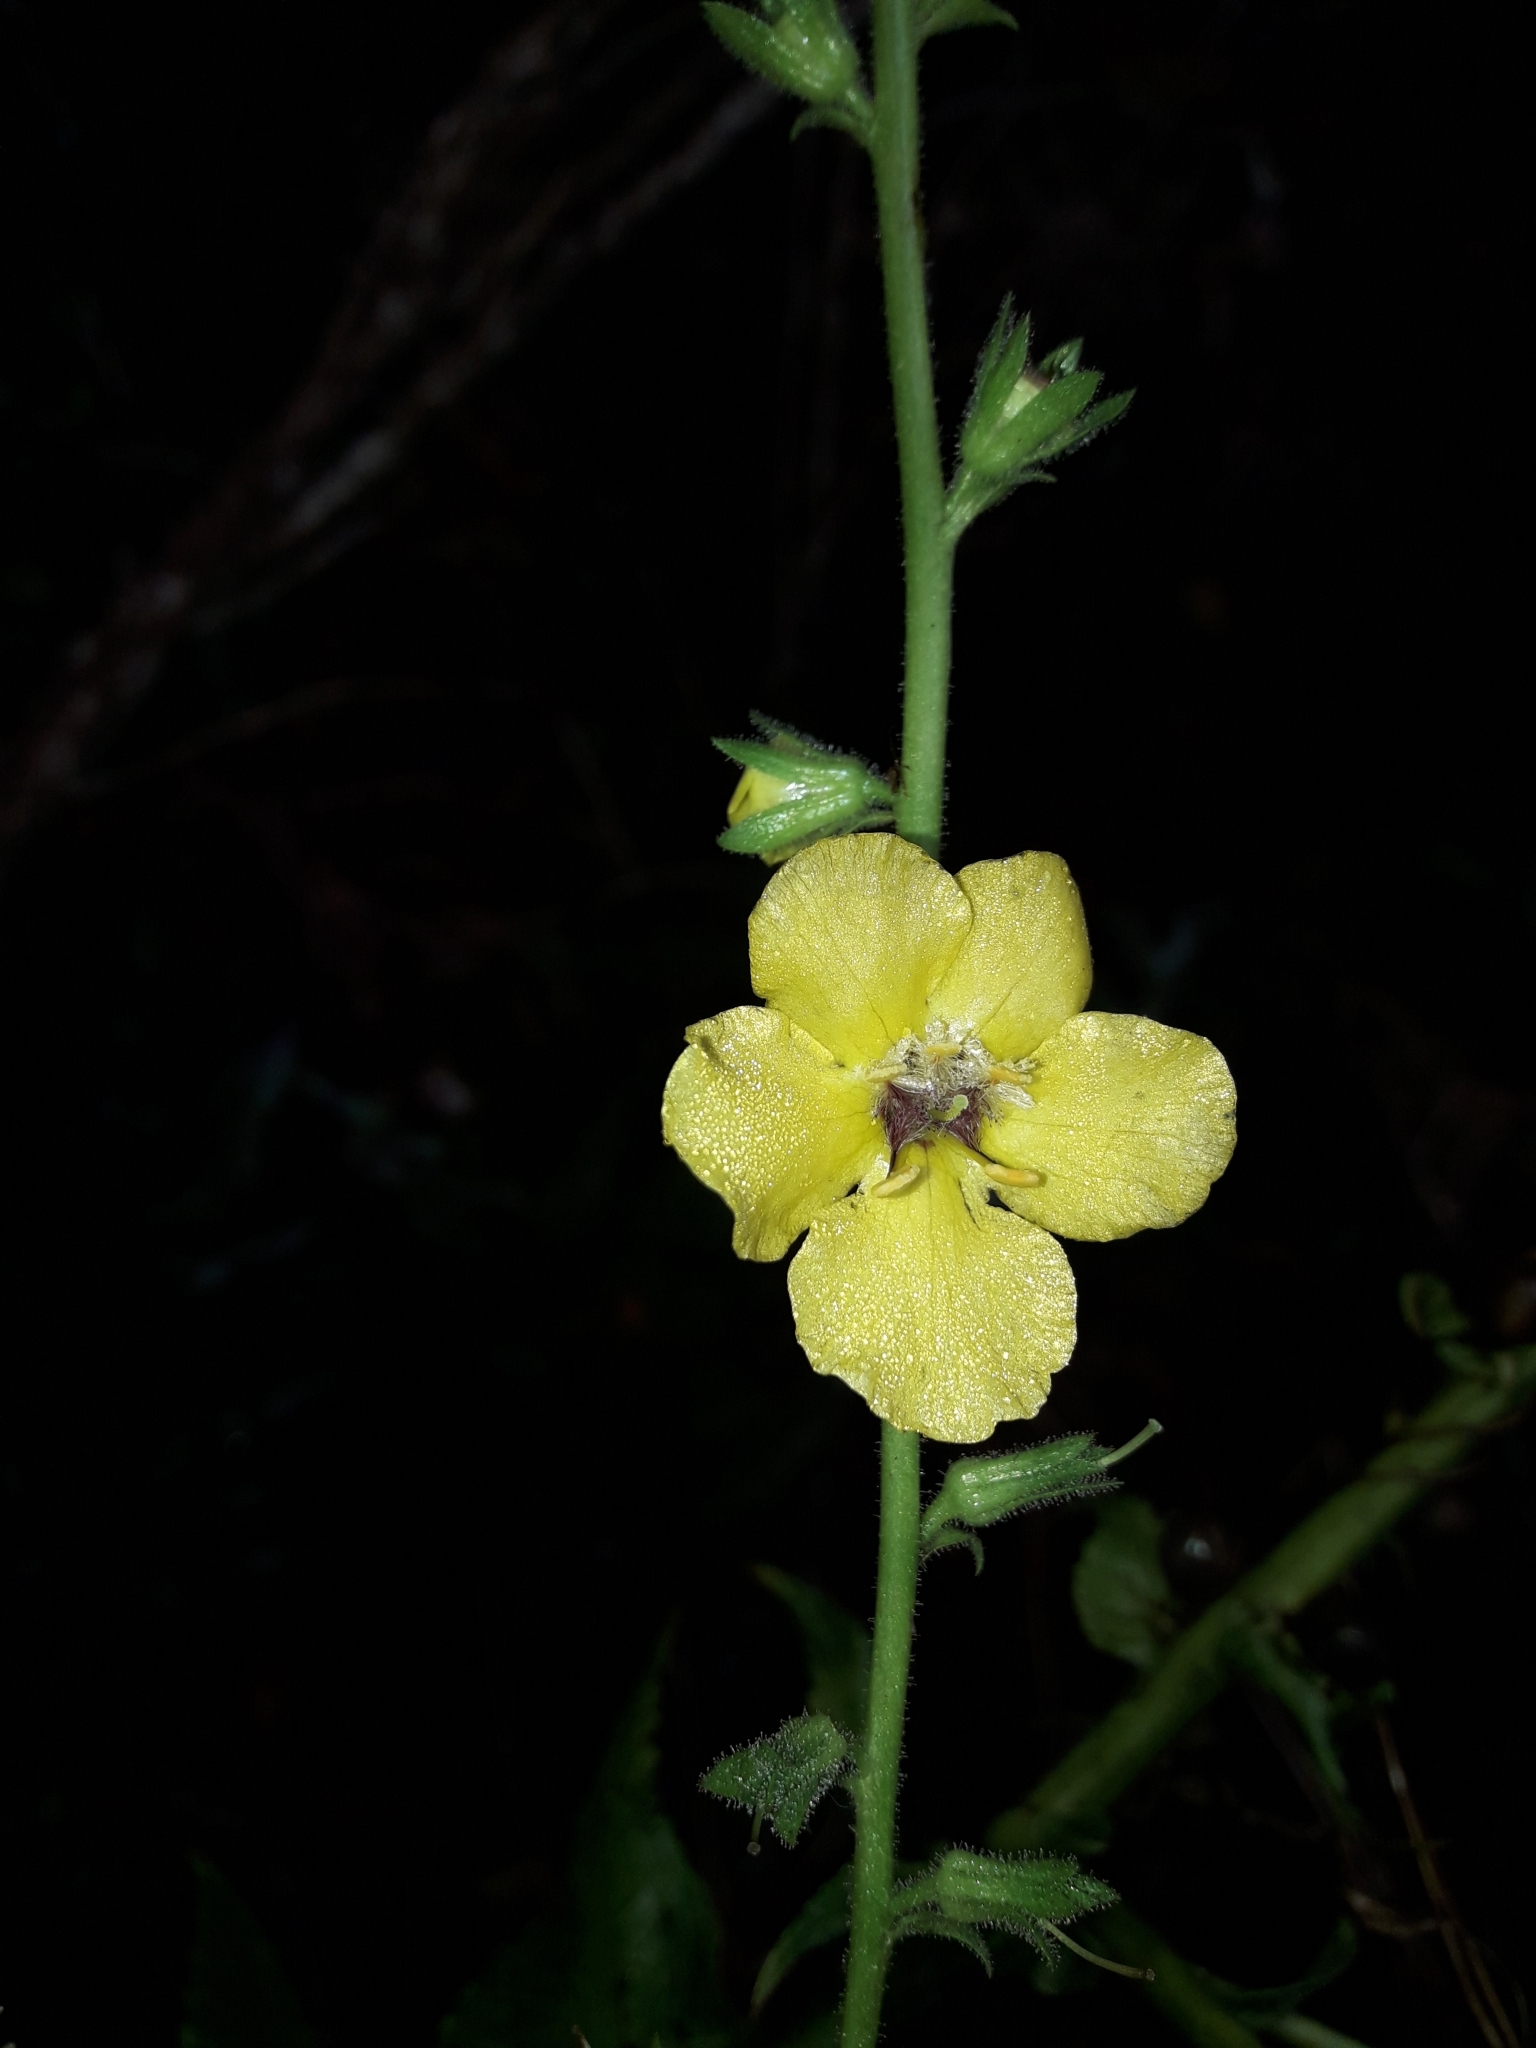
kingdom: Plantae
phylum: Tracheophyta
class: Magnoliopsida
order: Lamiales
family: Scrophulariaceae
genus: Verbascum
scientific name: Verbascum virgatum
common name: Twiggy mullein
